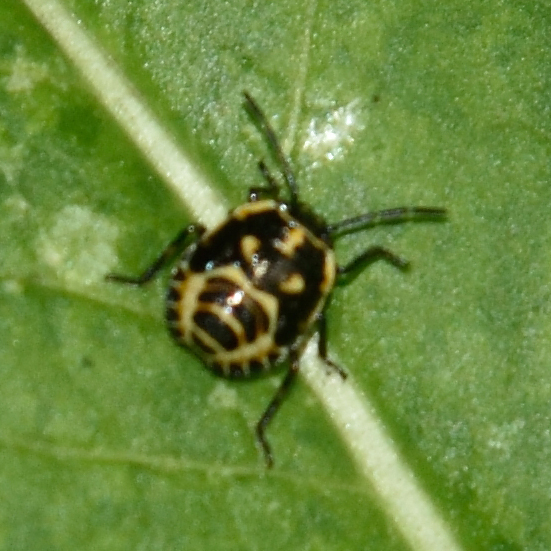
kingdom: Animalia
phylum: Arthropoda
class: Insecta
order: Hemiptera
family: Pentatomidae
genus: Eurydema
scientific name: Eurydema oleracea
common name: Cabbage bug
